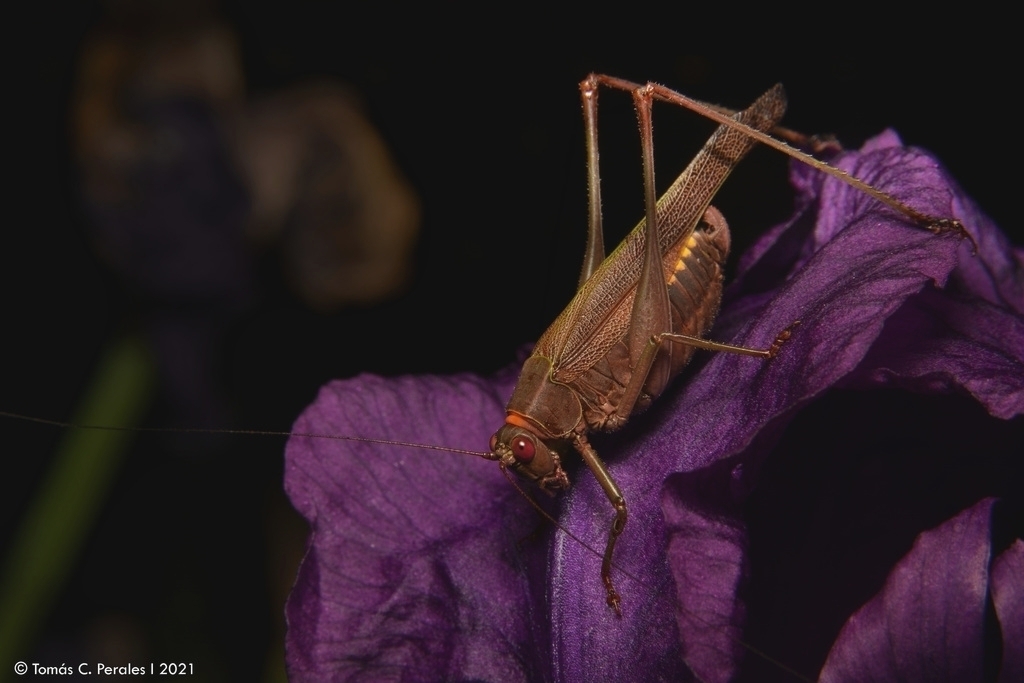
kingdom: Animalia
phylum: Arthropoda
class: Insecta
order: Orthoptera
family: Tettigoniidae
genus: Enthephippion
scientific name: Enthephippion borellii
